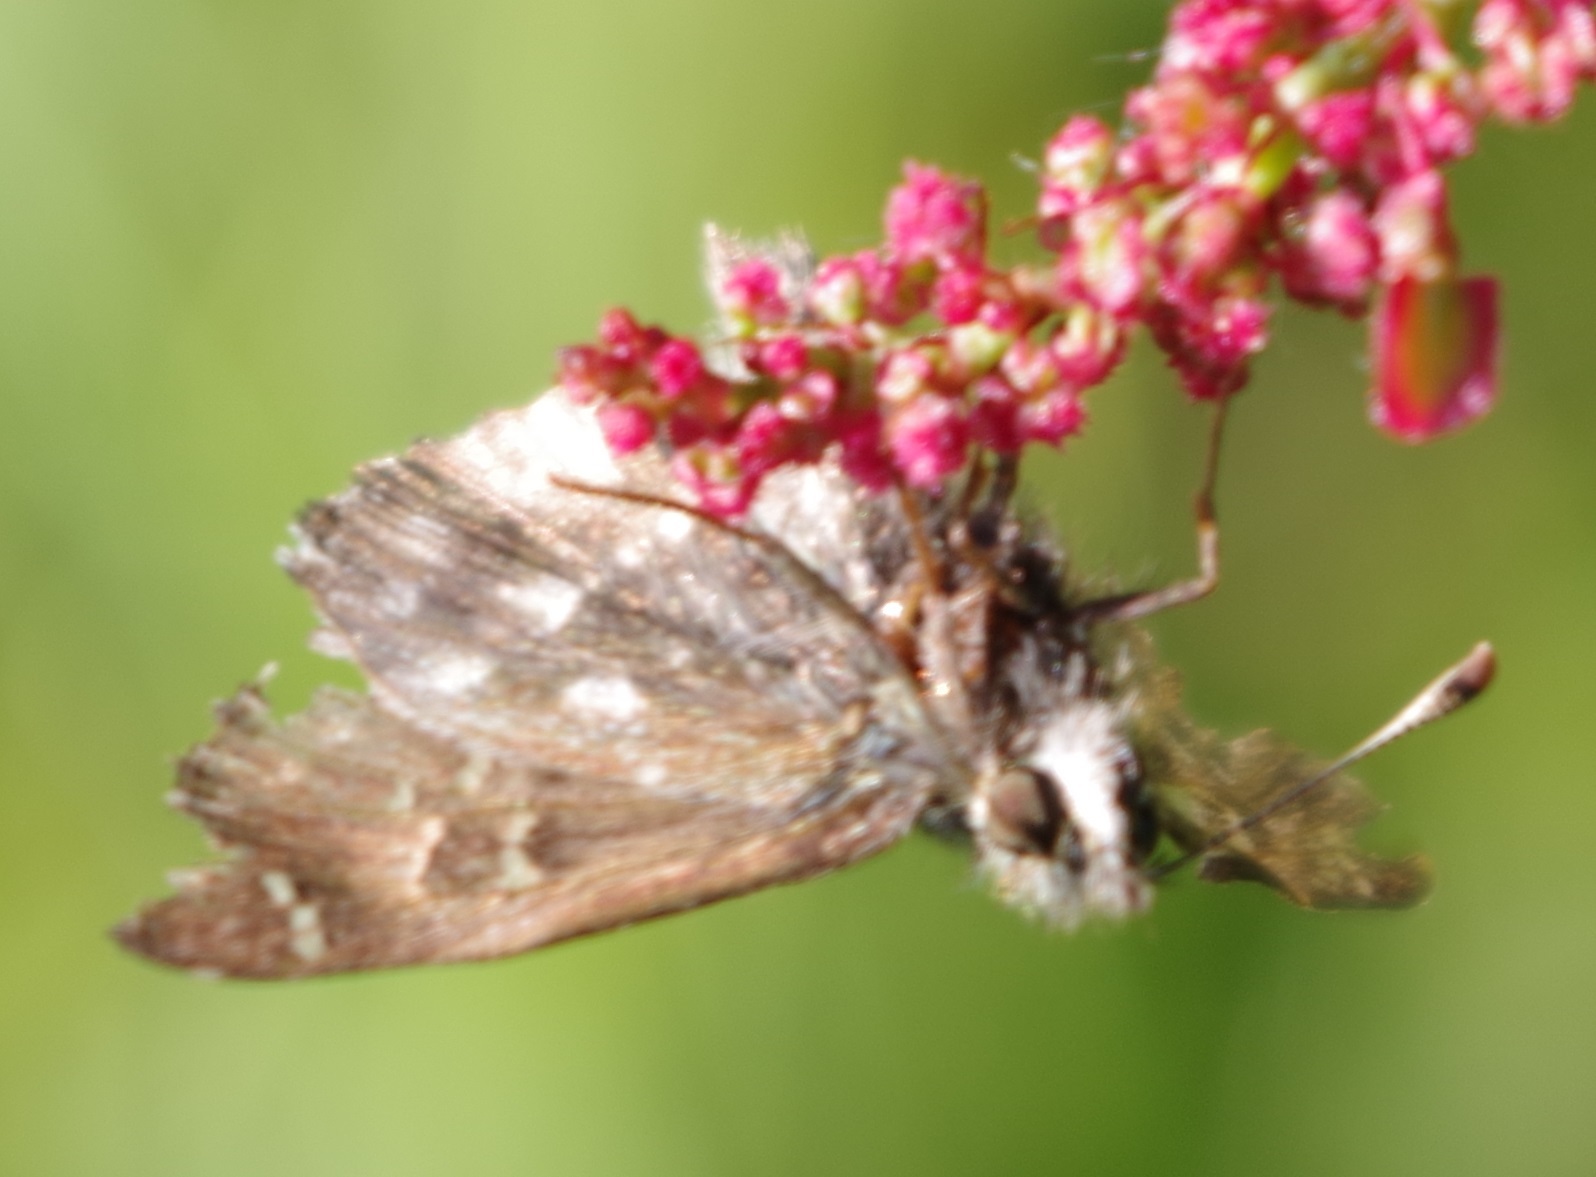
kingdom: Animalia
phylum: Arthropoda
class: Insecta
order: Lepidoptera
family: Hesperiidae
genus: Carcharodus
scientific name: Carcharodus alceae
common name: Mallow skipper
